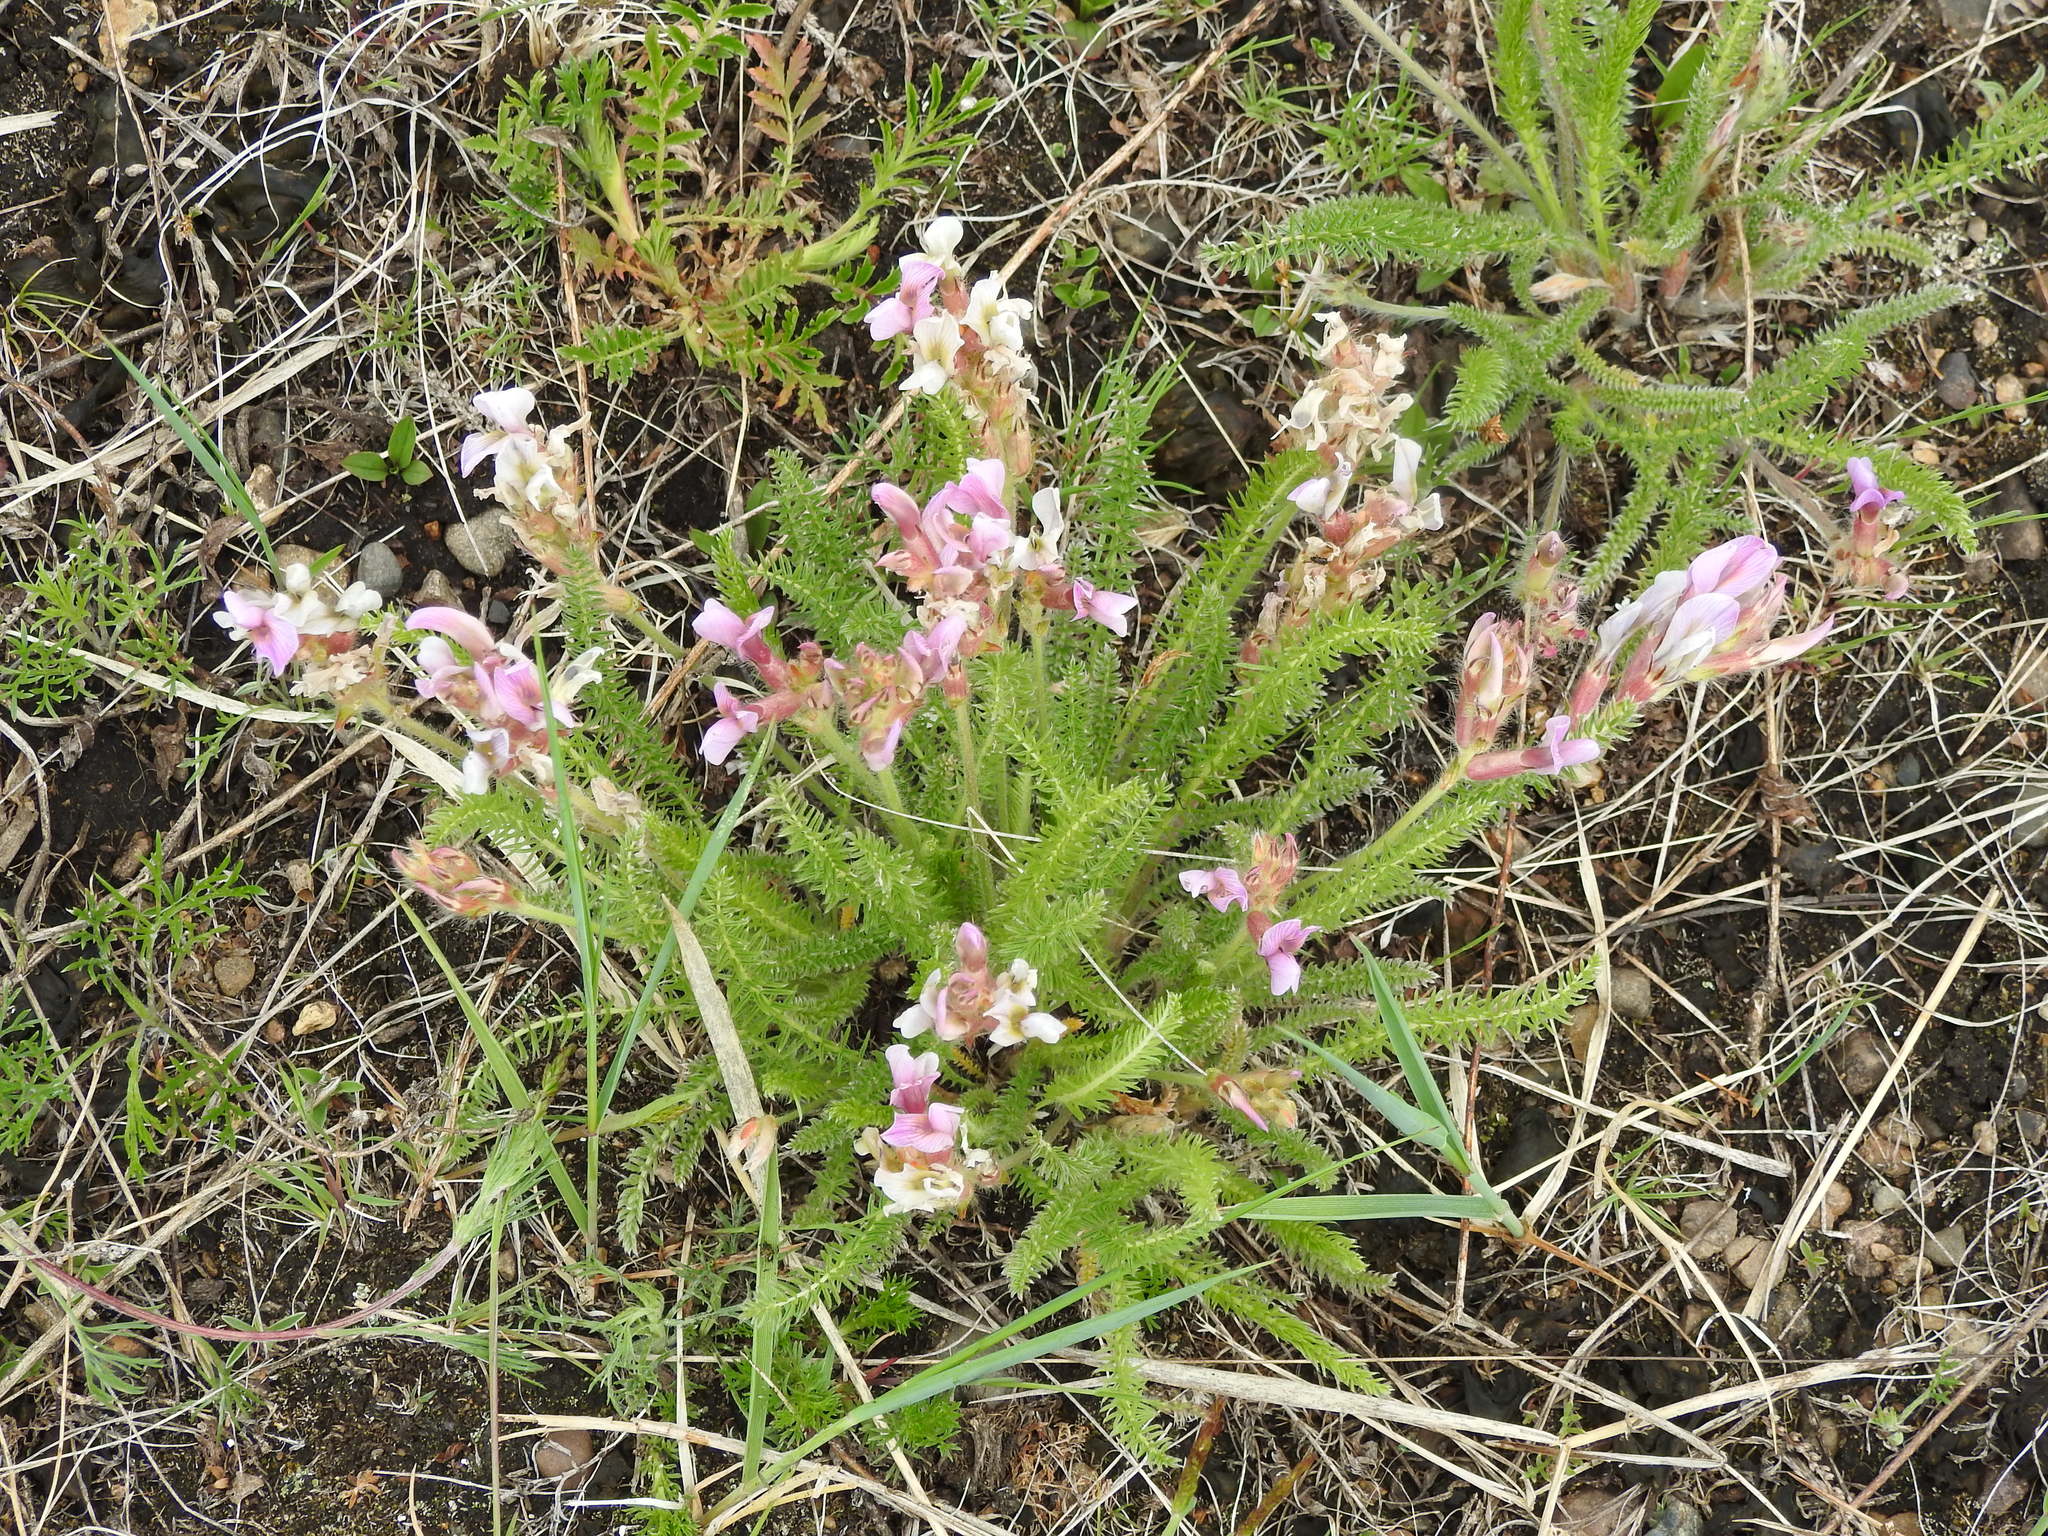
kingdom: Plantae
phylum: Tracheophyta
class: Magnoliopsida
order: Fabales
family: Fabaceae
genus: Oxytropis
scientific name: Oxytropis myriophylla
